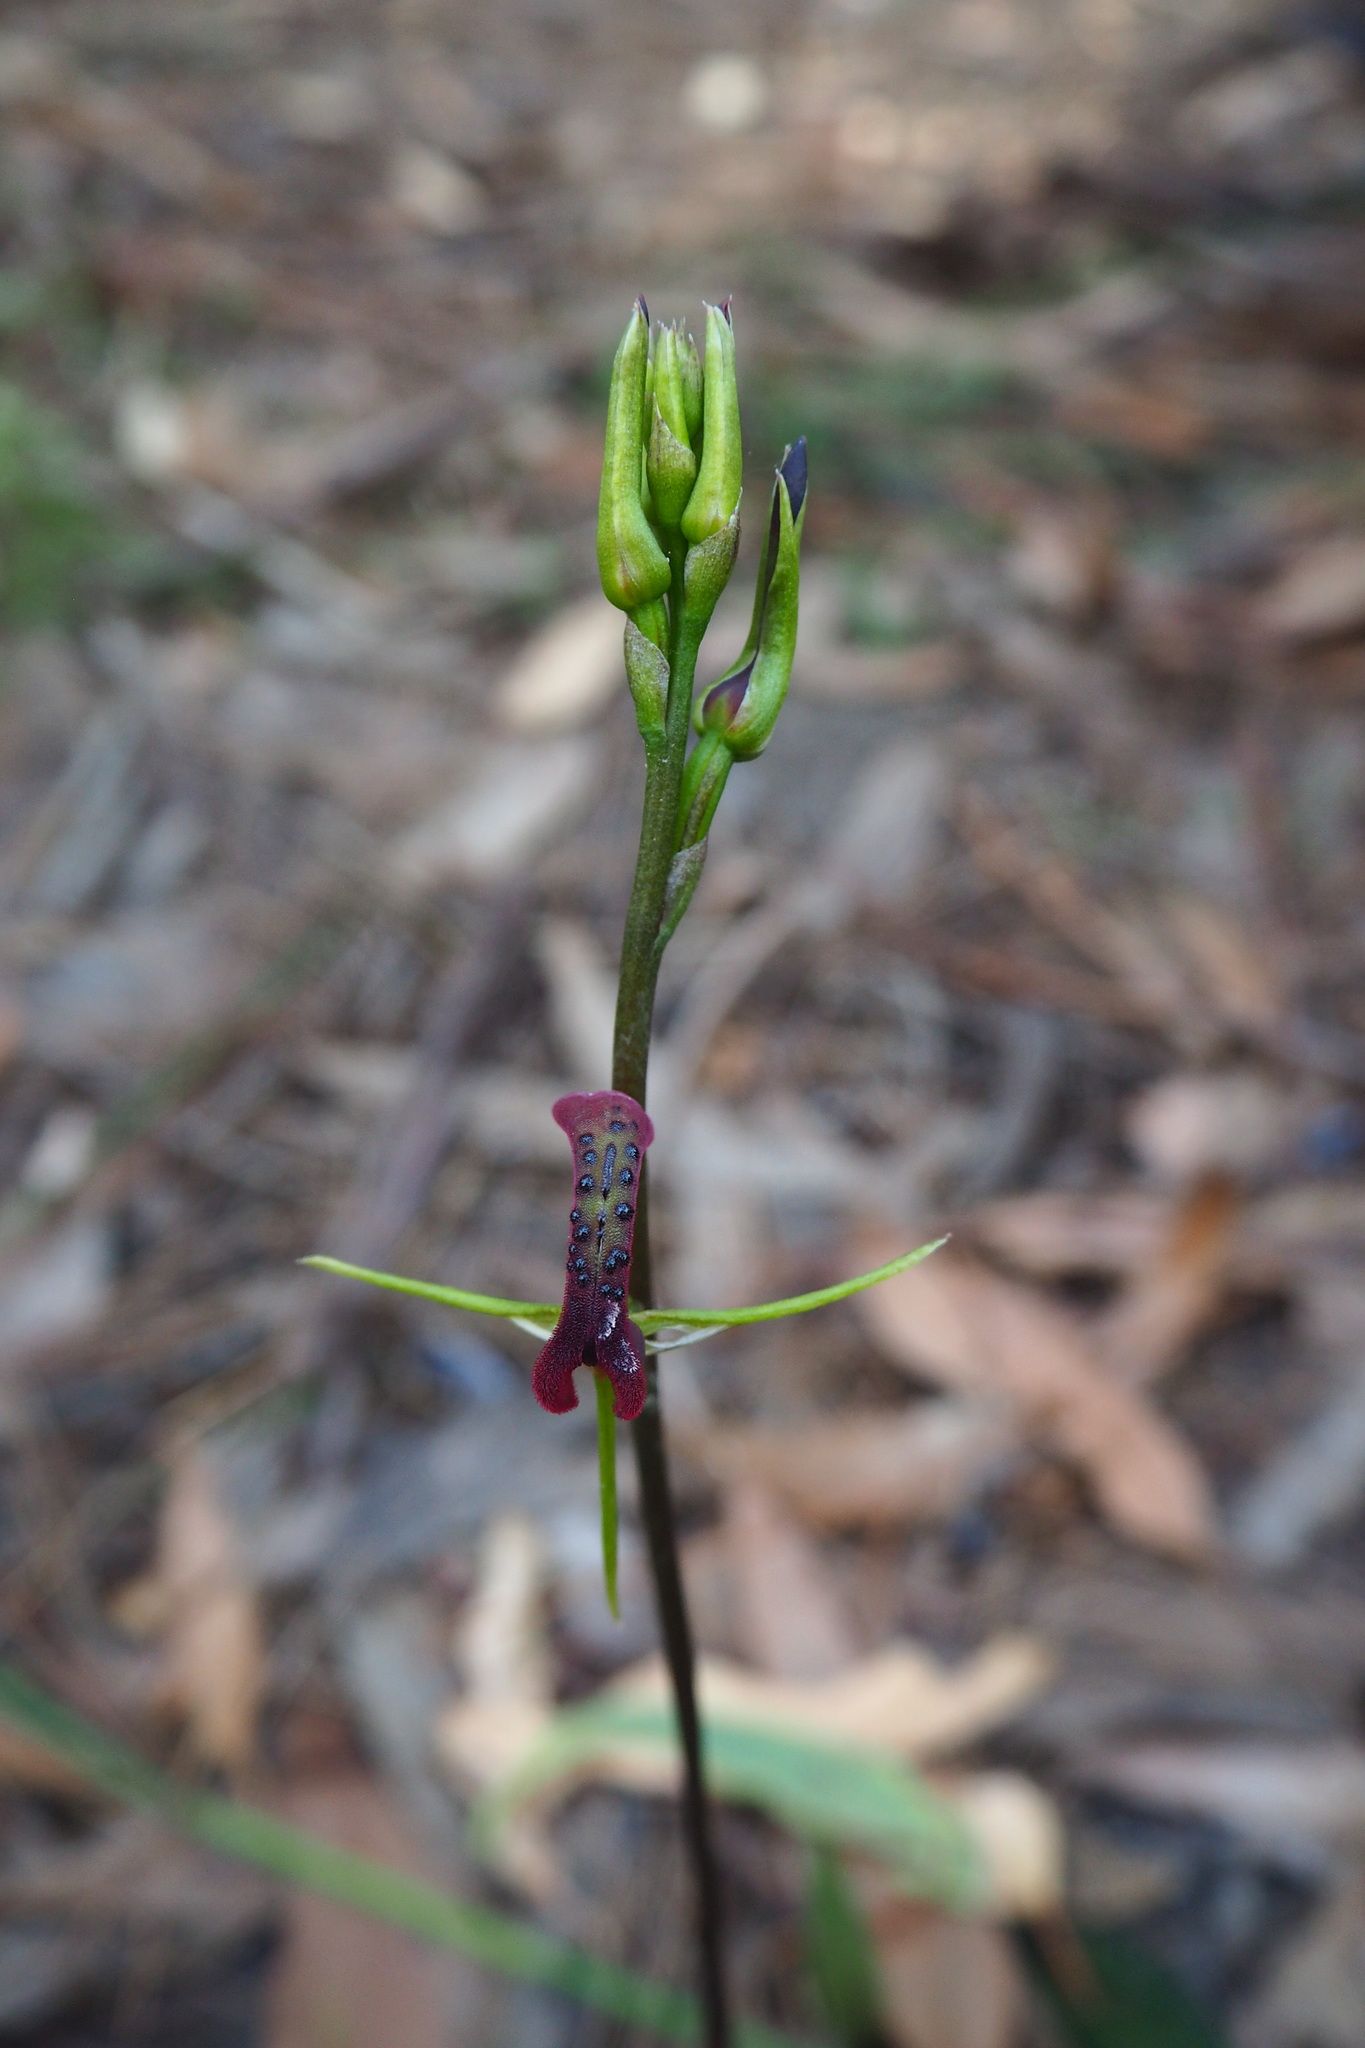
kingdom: Plantae
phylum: Tracheophyta
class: Liliopsida
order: Asparagales
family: Orchidaceae
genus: Cryptostylis
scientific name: Cryptostylis leptochila
